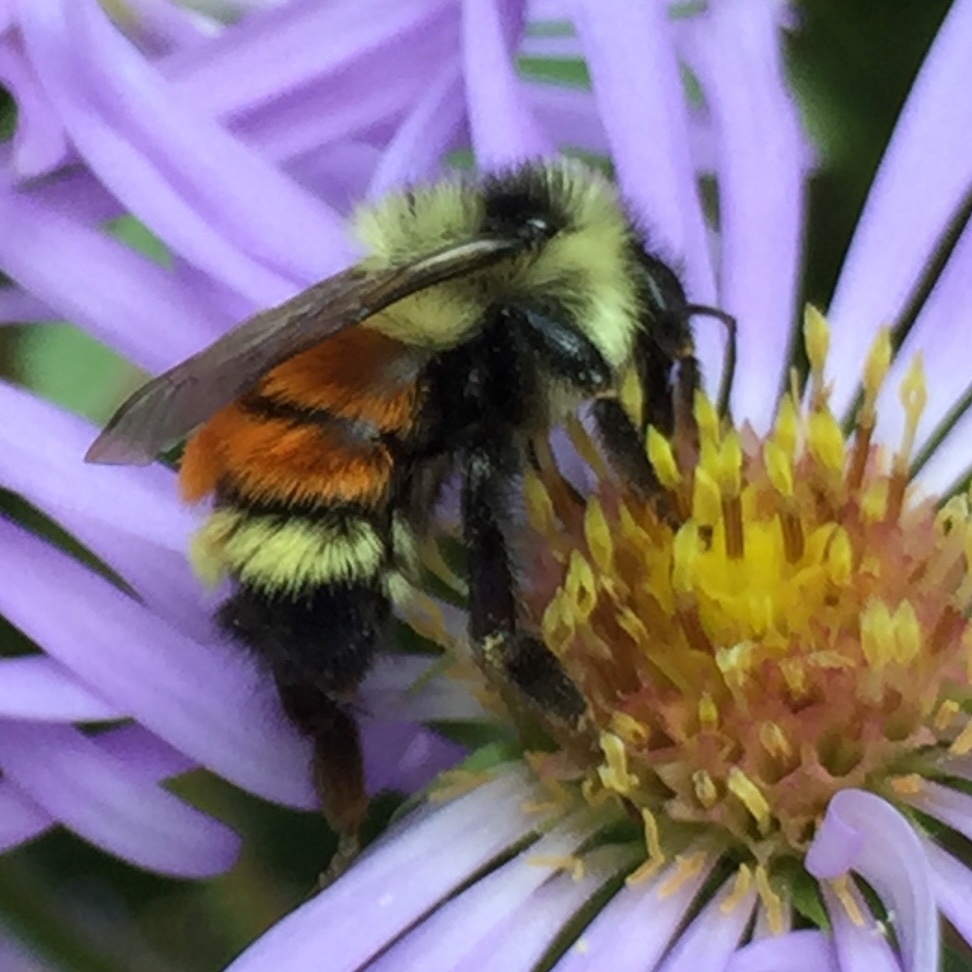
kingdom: Animalia
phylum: Arthropoda
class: Insecta
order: Hymenoptera
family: Apidae
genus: Bombus
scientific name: Bombus ternarius
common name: Tri-colored bumble bee
